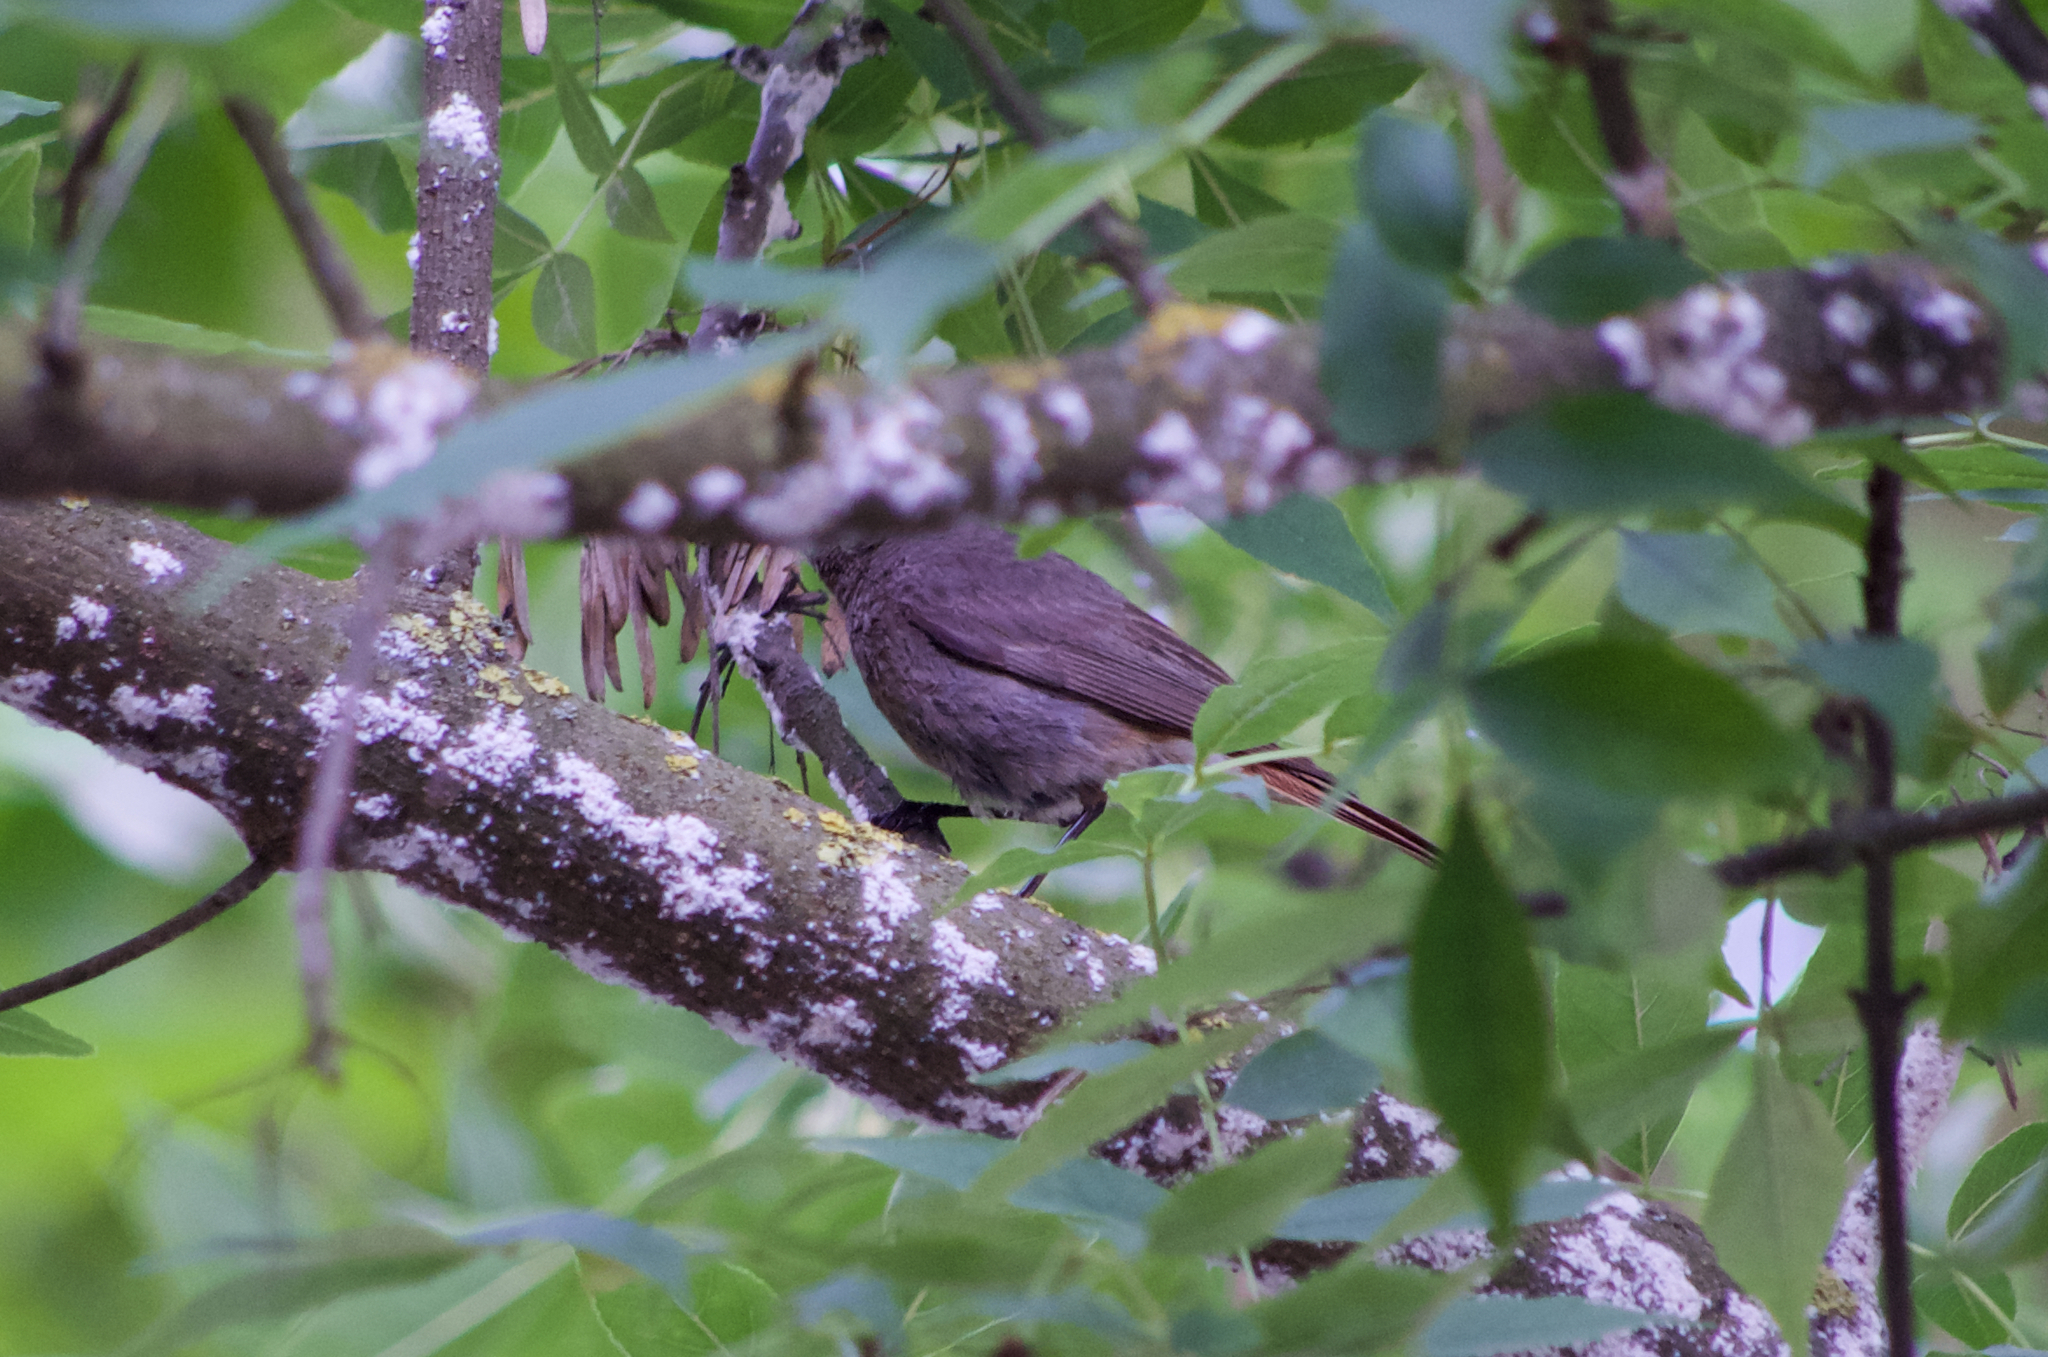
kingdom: Animalia
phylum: Chordata
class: Aves
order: Passeriformes
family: Muscicapidae
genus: Phoenicurus
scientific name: Phoenicurus ochruros
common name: Black redstart
